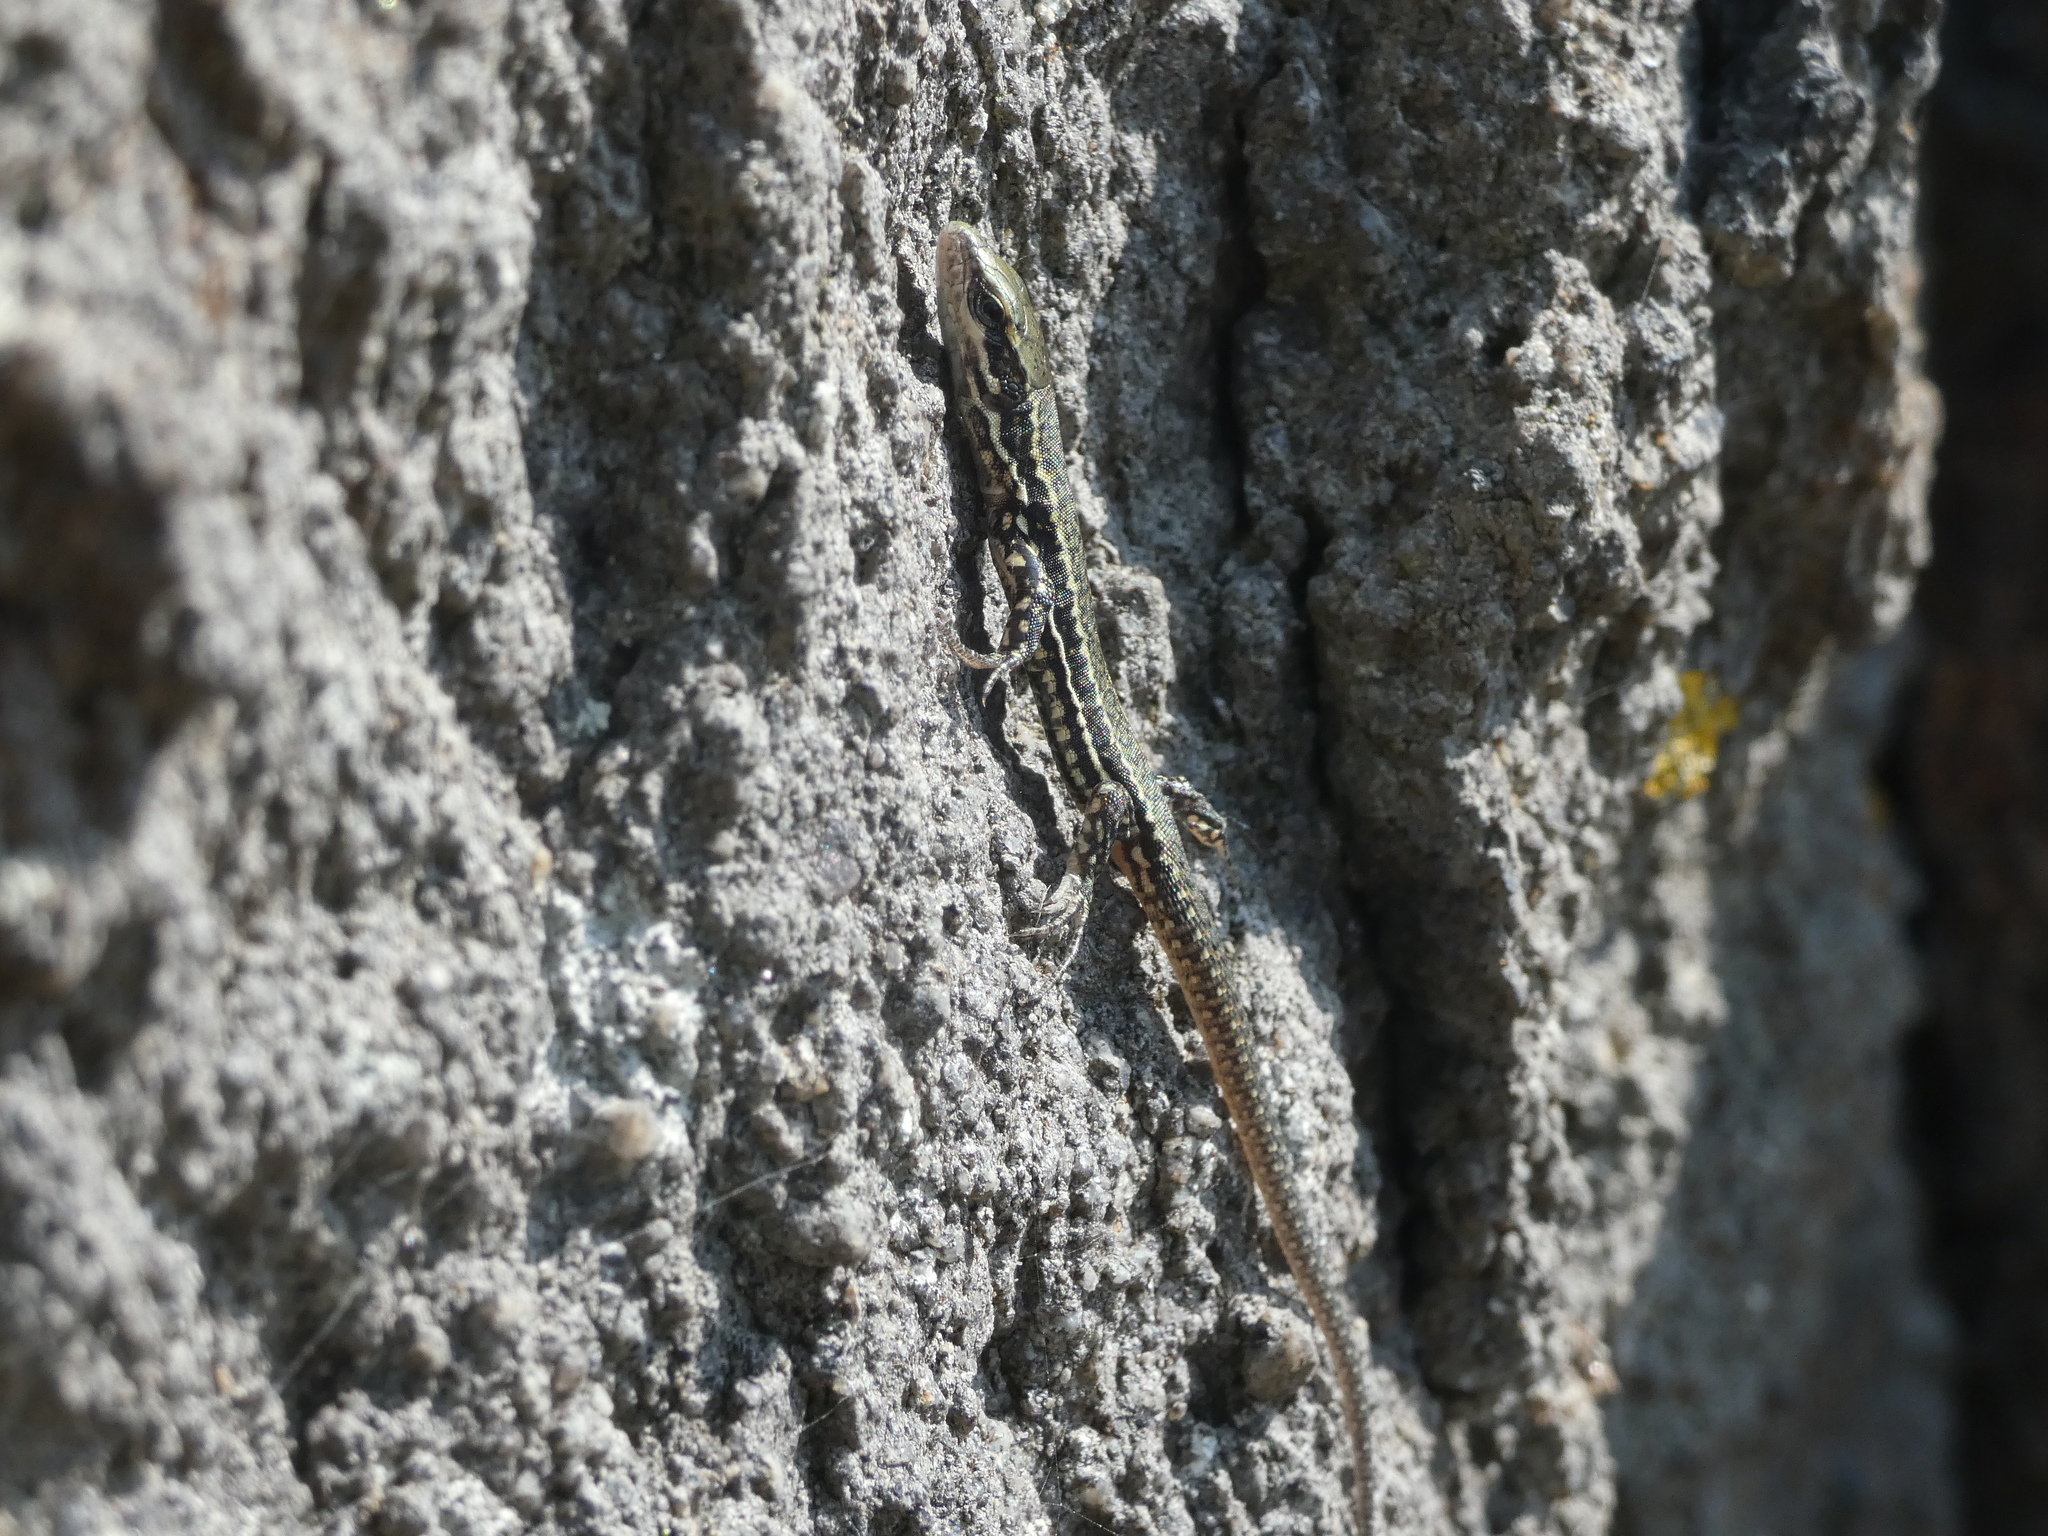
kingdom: Animalia
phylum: Chordata
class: Squamata
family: Lacertidae
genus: Podarcis
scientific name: Podarcis muralis
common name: Common wall lizard
